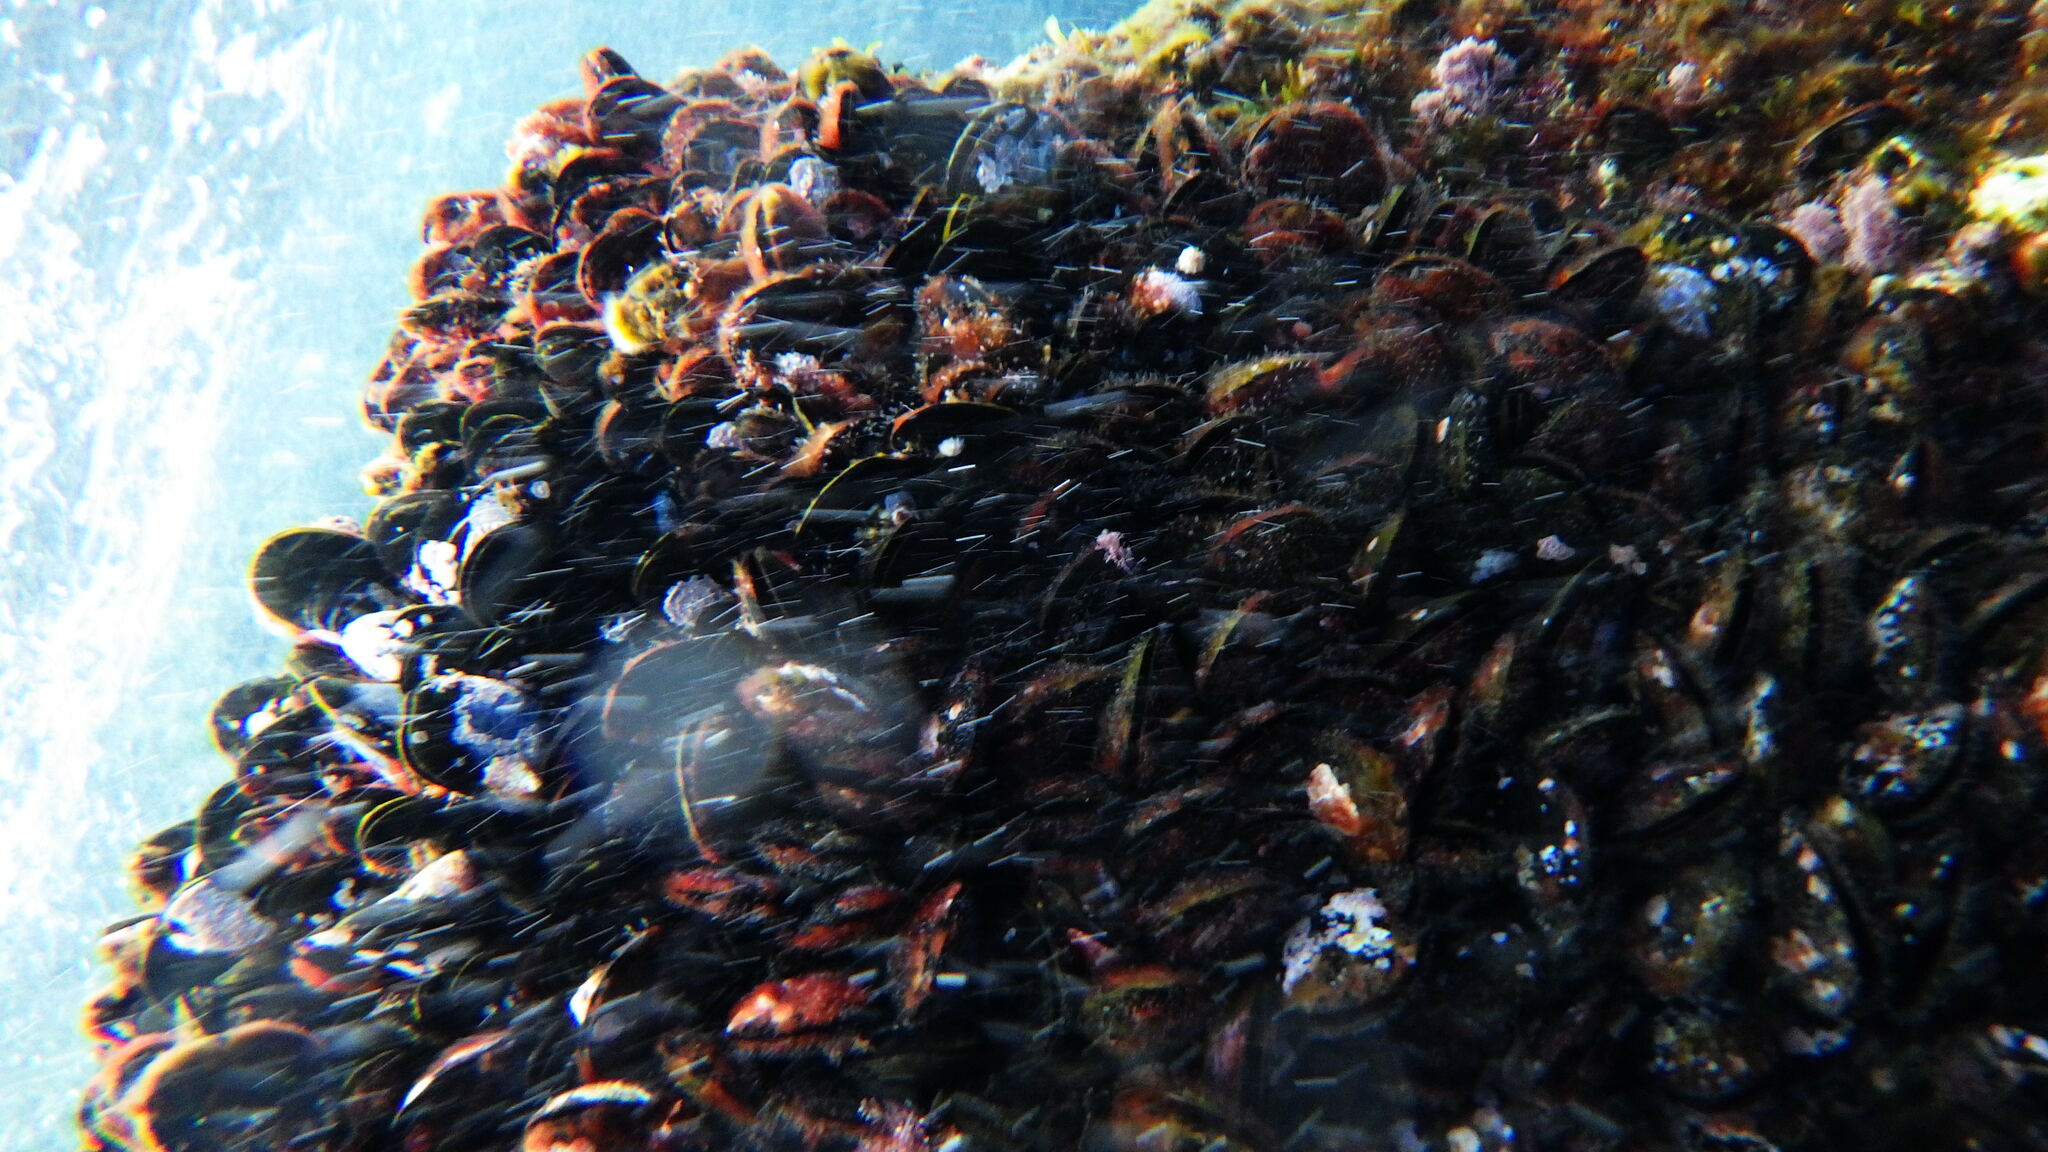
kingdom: Animalia
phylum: Mollusca
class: Bivalvia
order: Mytilida
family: Mytilidae
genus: Mytilus
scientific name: Mytilus galloprovincialis
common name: Mediterranean mussel
